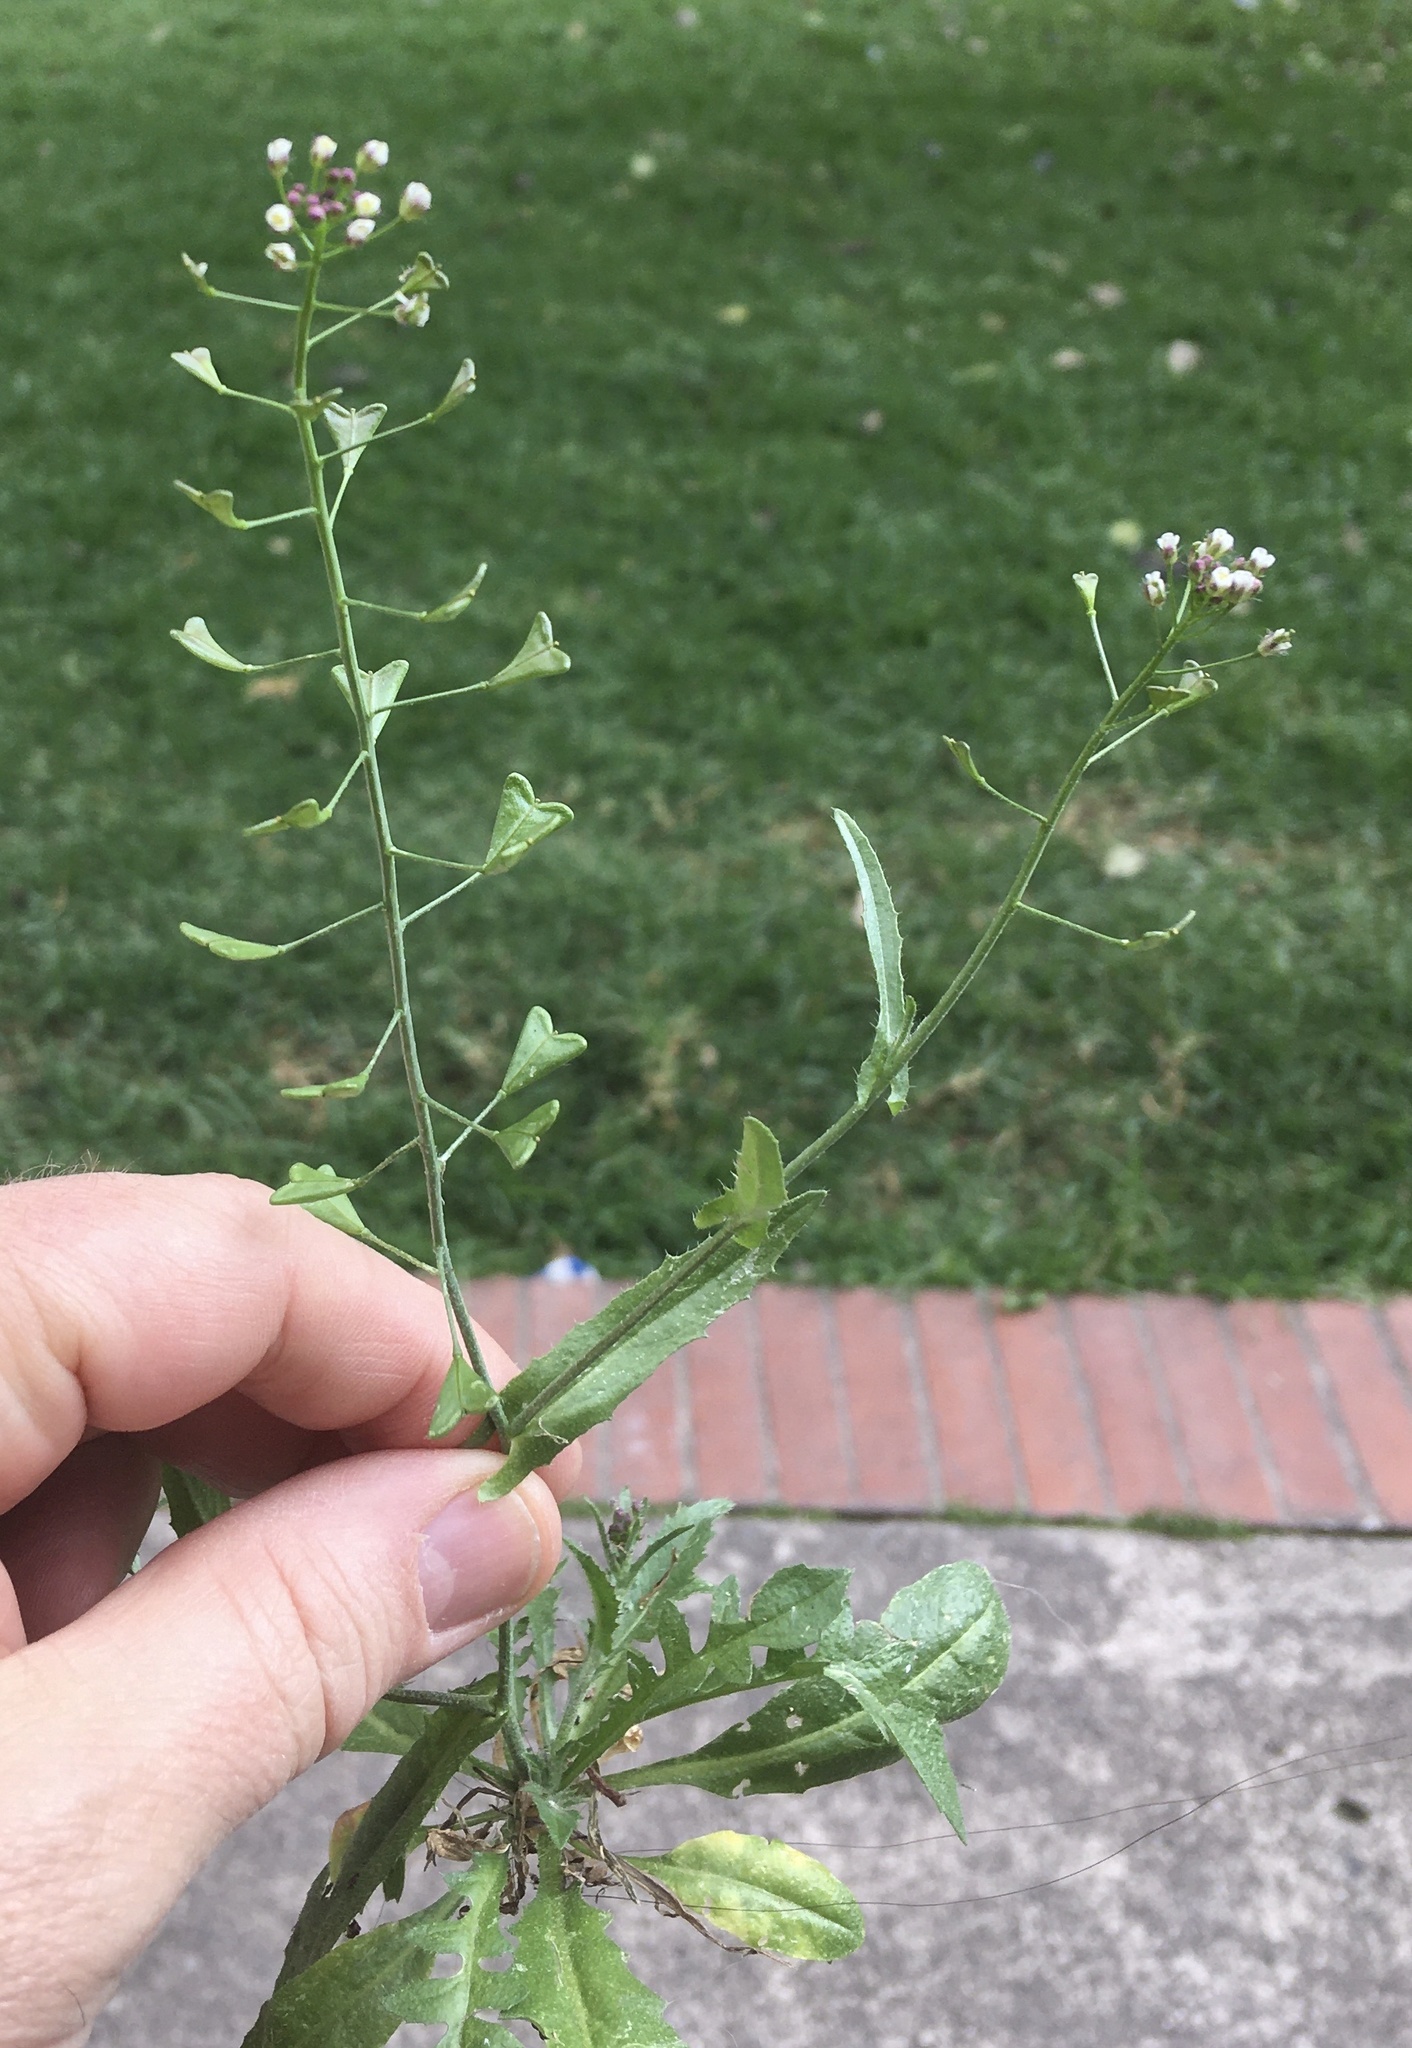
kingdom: Plantae
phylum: Tracheophyta
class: Magnoliopsida
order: Brassicales
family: Brassicaceae
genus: Capsella
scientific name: Capsella bursa-pastoris
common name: Shepherd's purse
